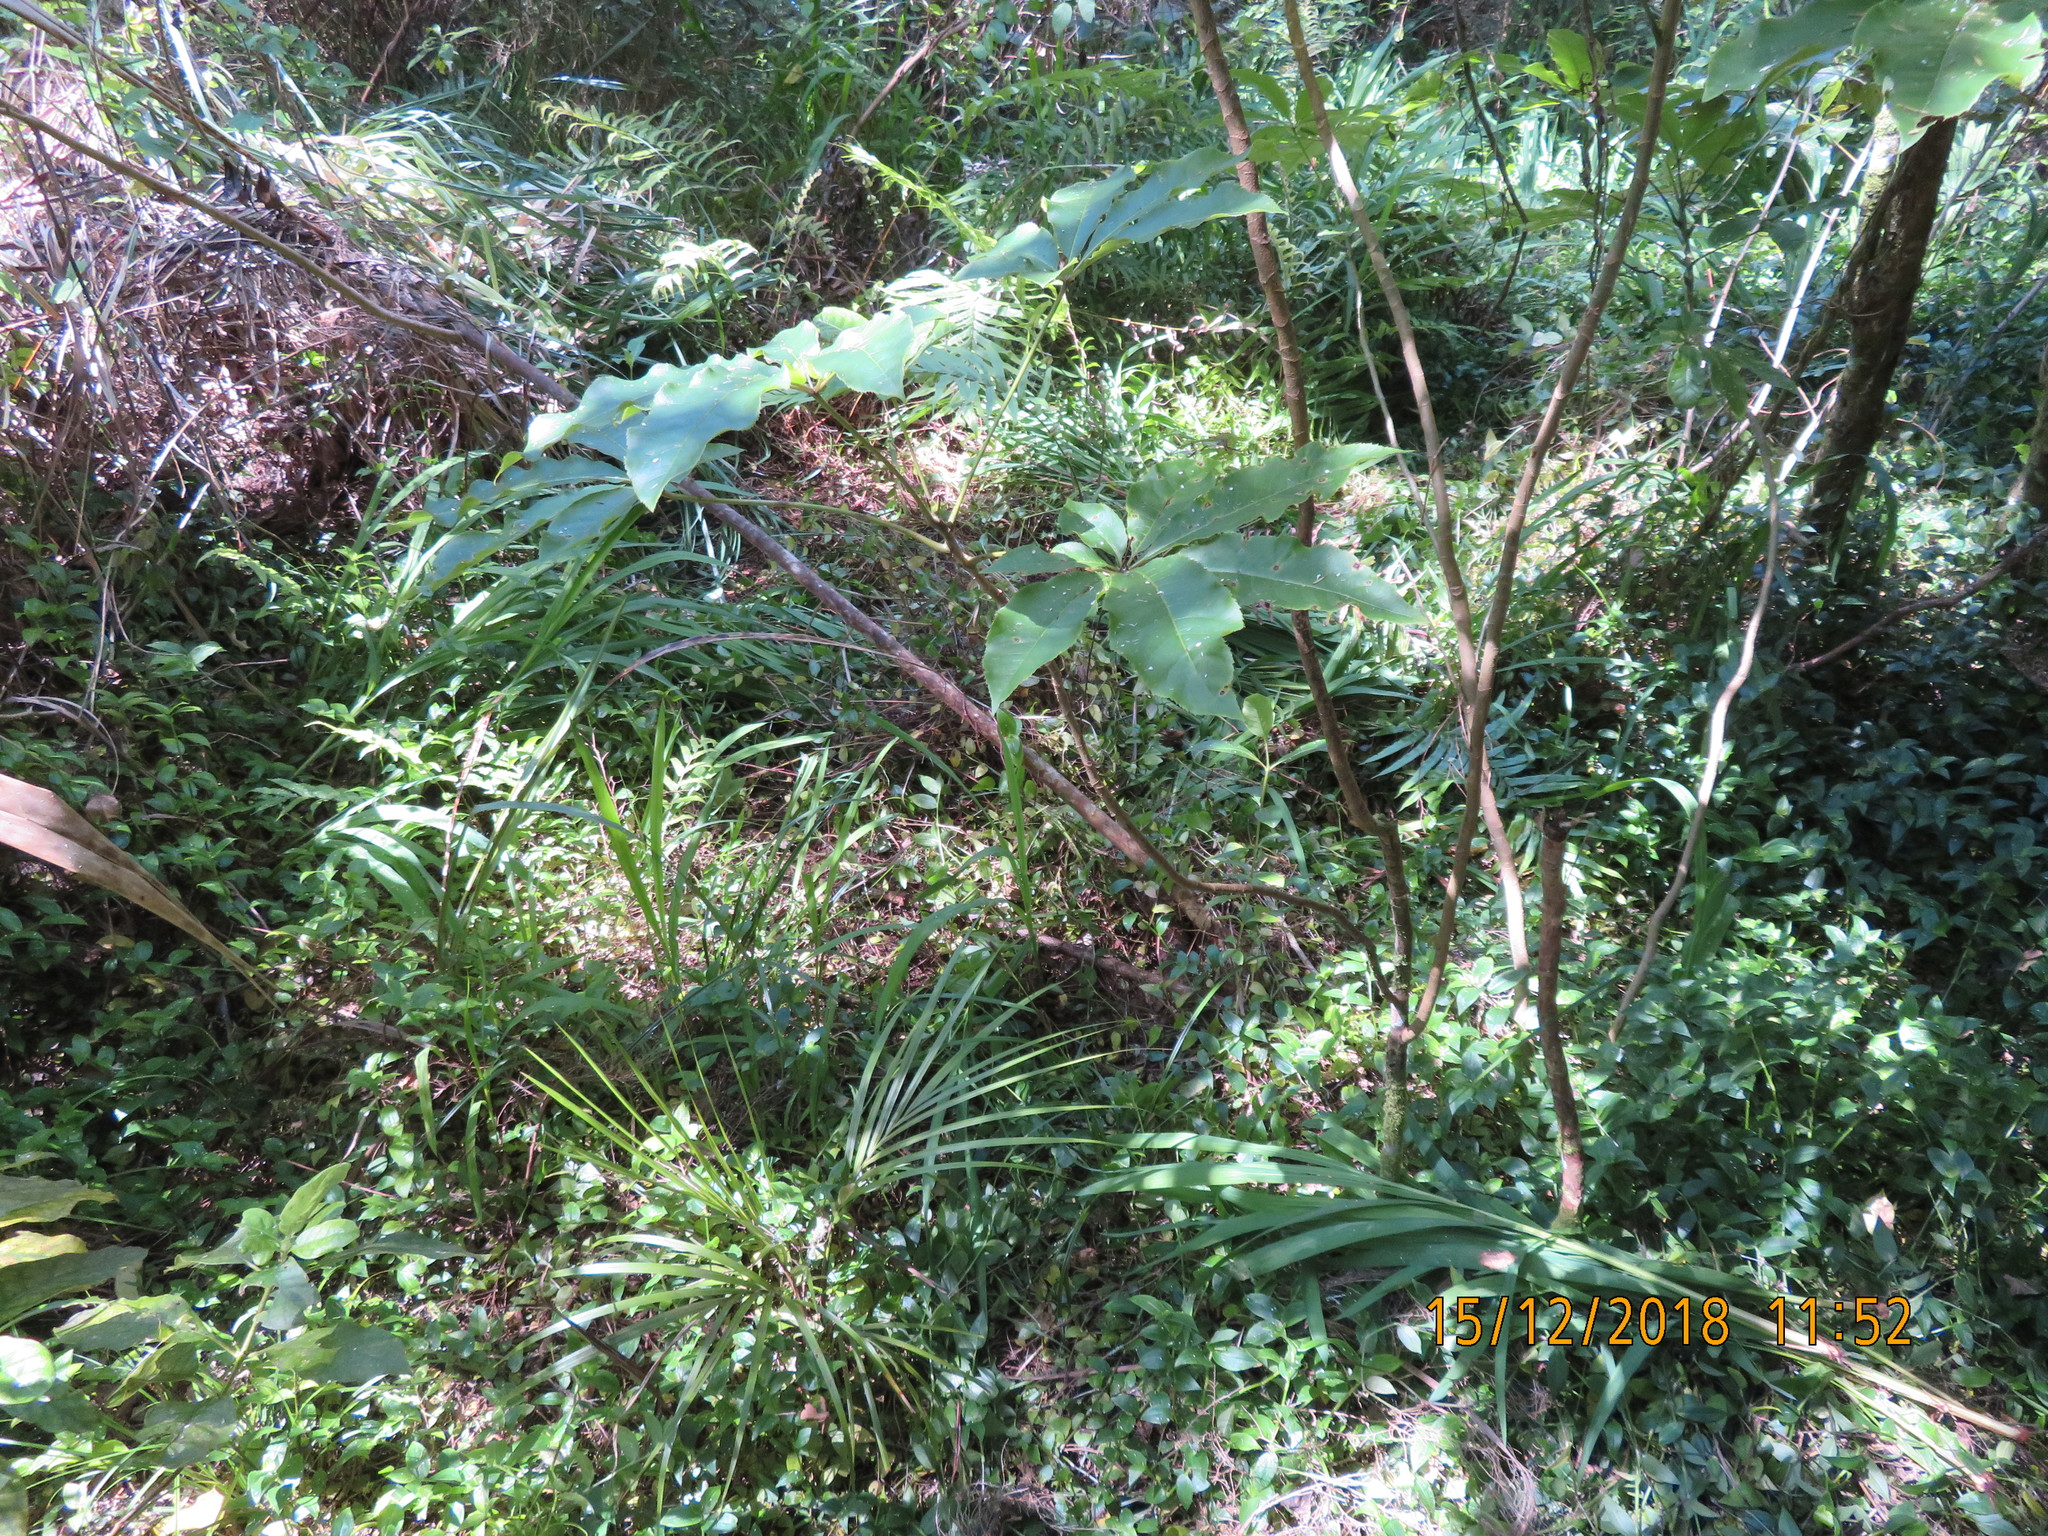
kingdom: Plantae
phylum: Tracheophyta
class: Magnoliopsida
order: Apiales
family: Araliaceae
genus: Schefflera
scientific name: Schefflera digitata
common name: Pate
